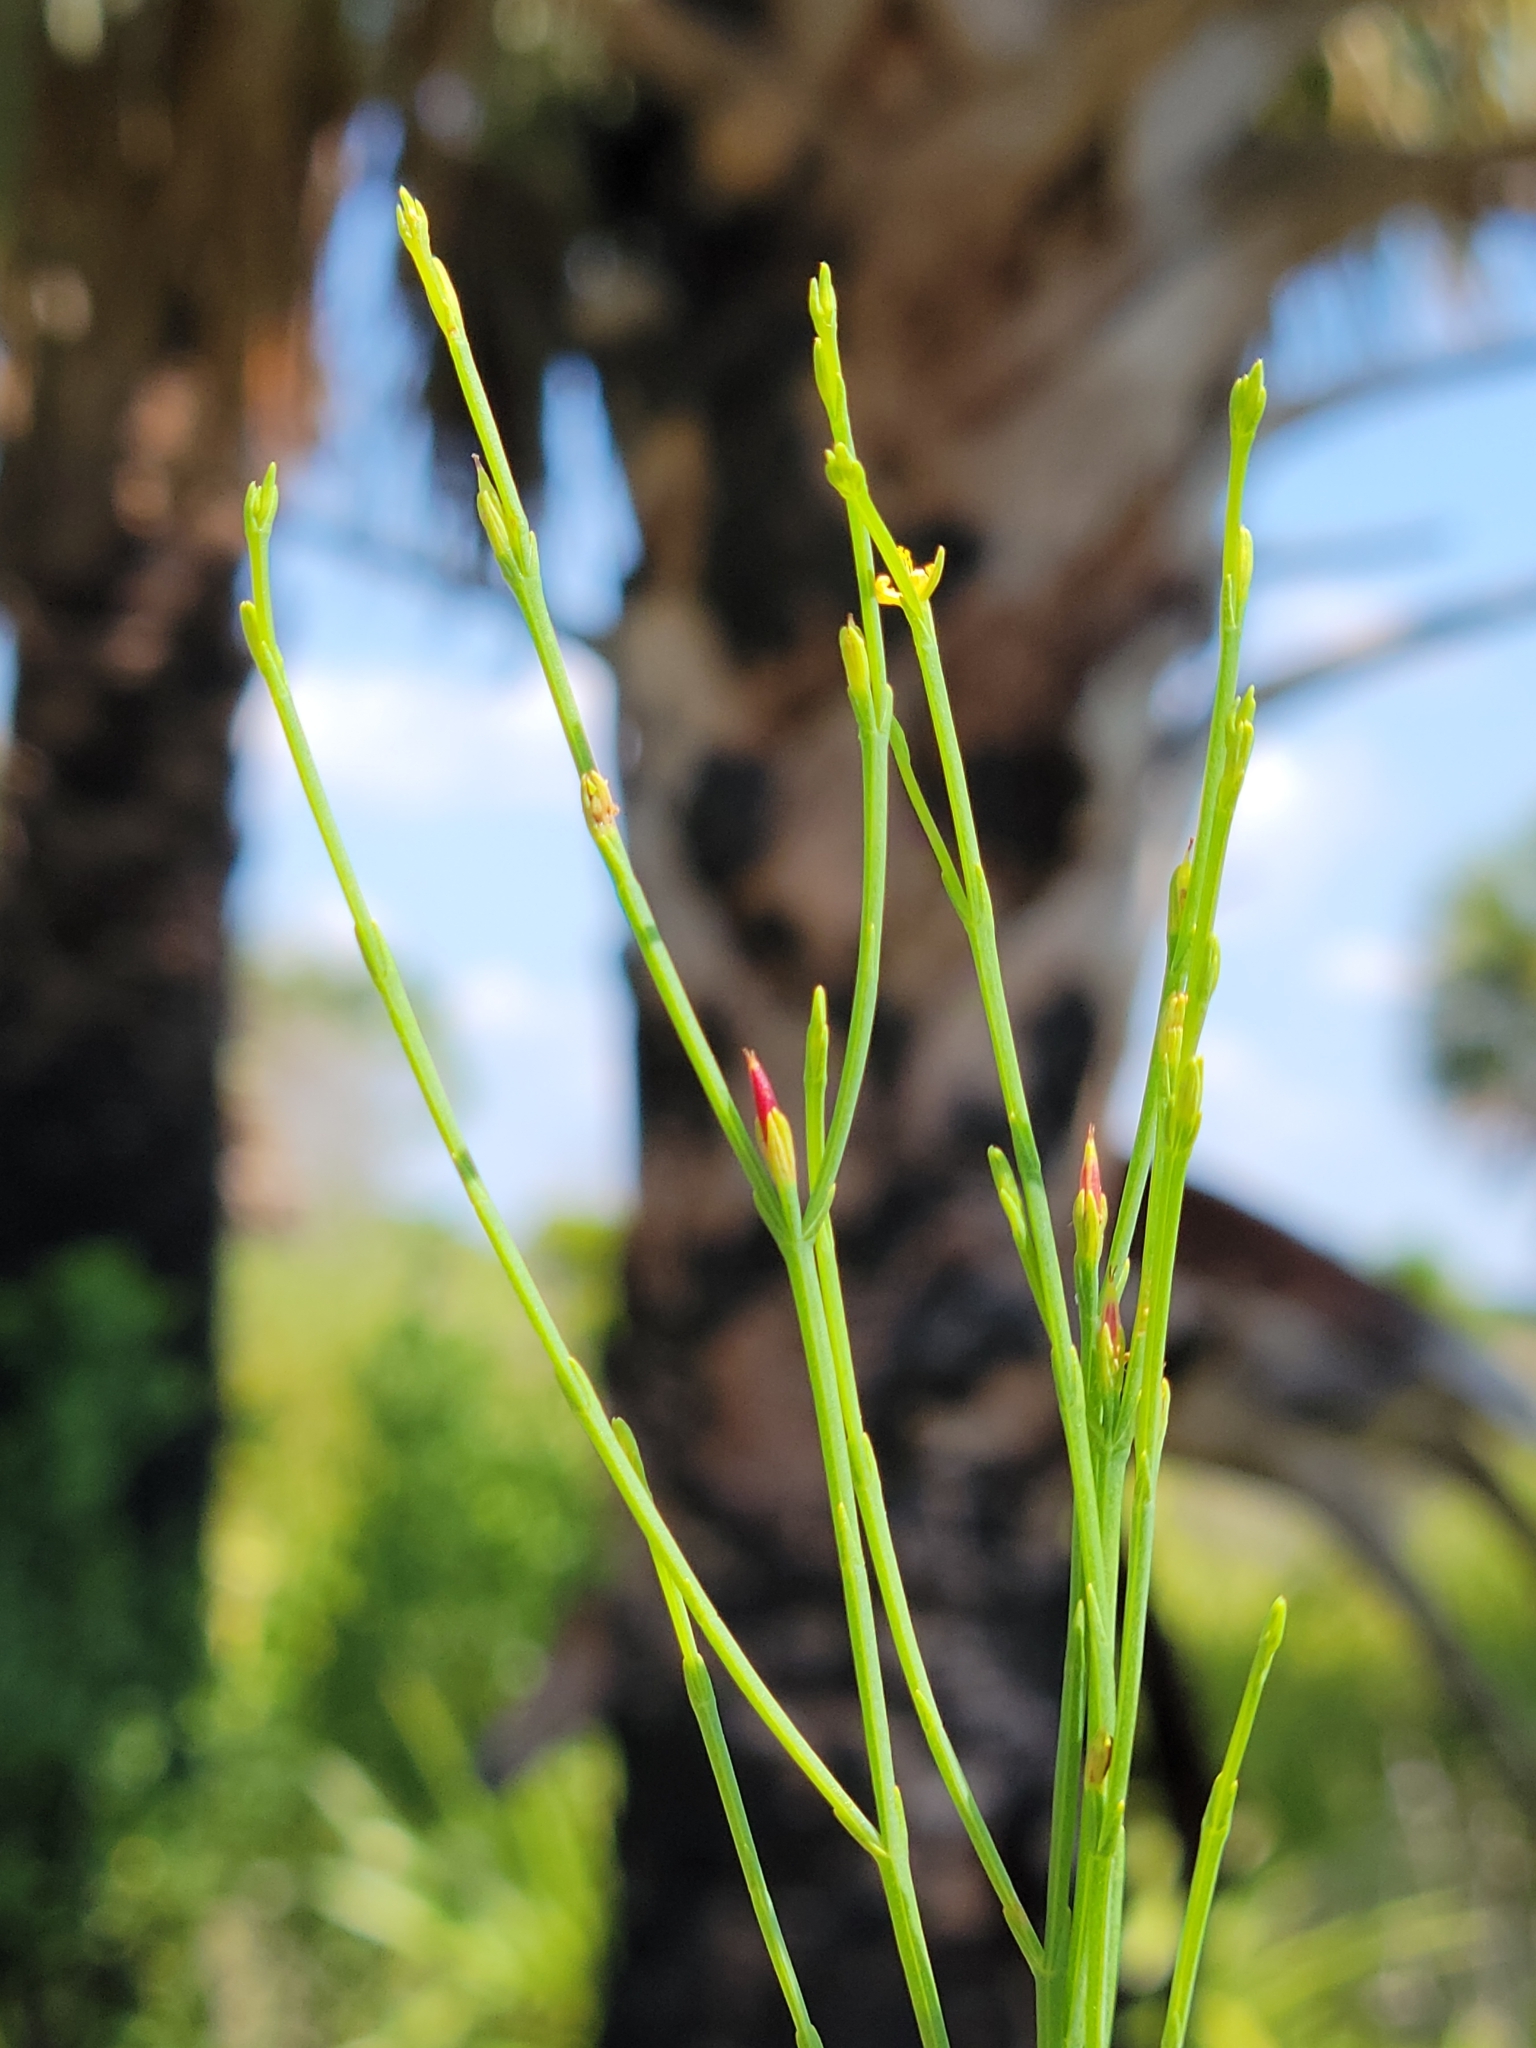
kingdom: Plantae
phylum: Tracheophyta
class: Magnoliopsida
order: Malpighiales
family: Hypericaceae
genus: Hypericum
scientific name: Hypericum gentianoides
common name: Gentian-leaved st. john's-wort
